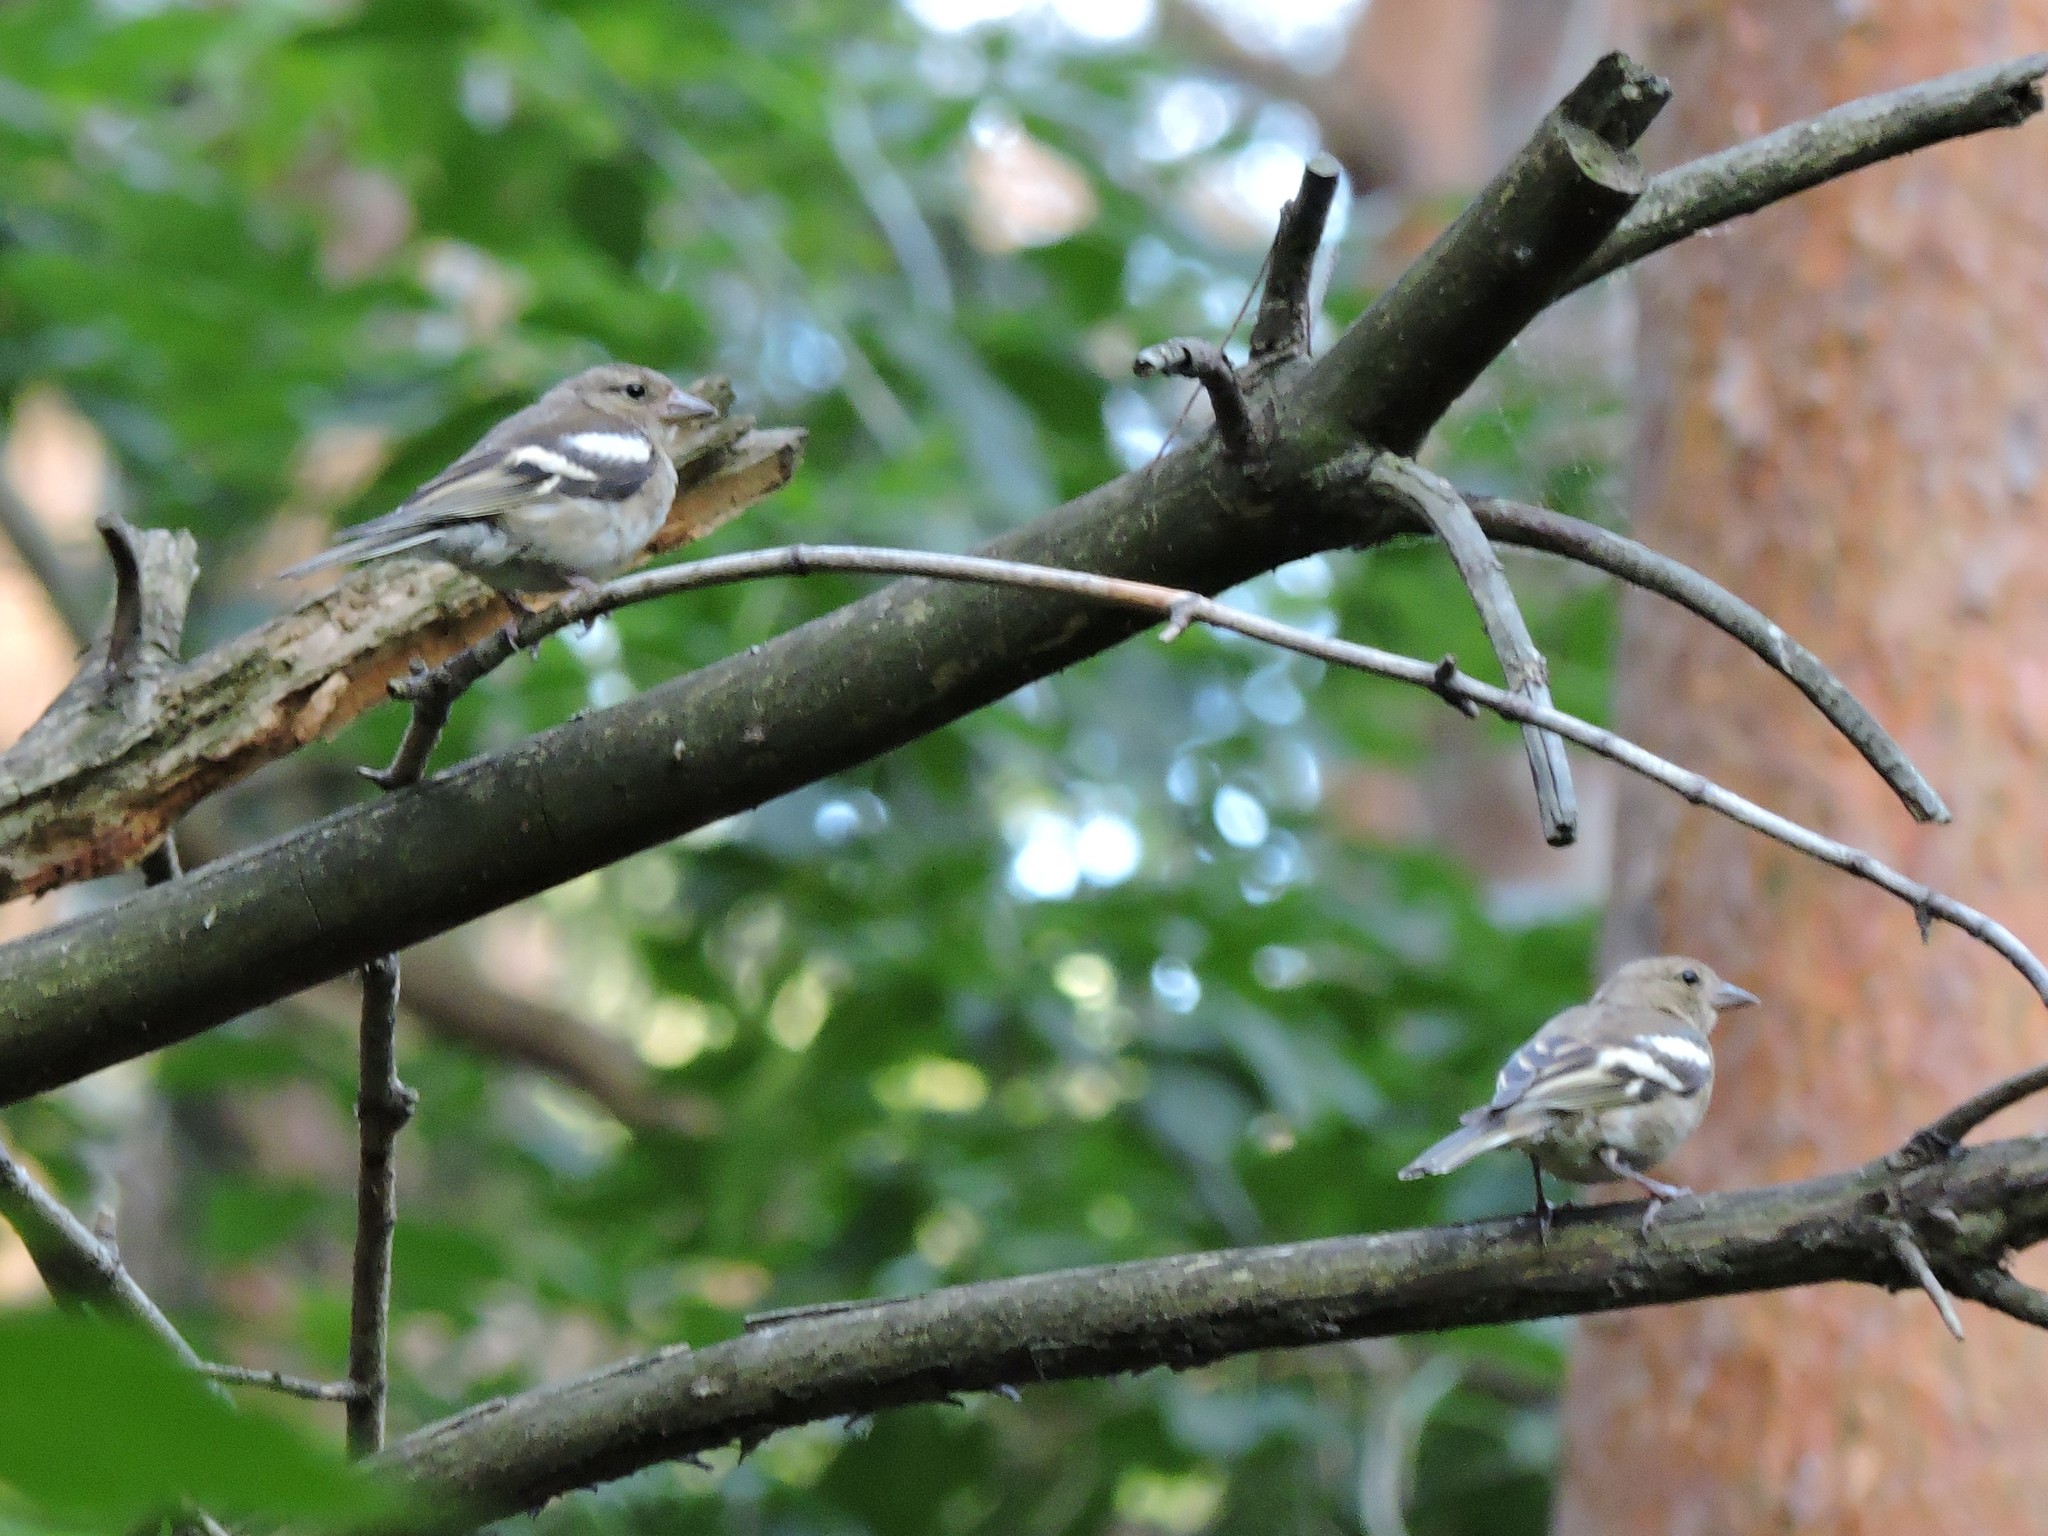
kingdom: Animalia
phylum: Chordata
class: Aves
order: Passeriformes
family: Fringillidae
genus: Fringilla
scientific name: Fringilla coelebs
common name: Common chaffinch
